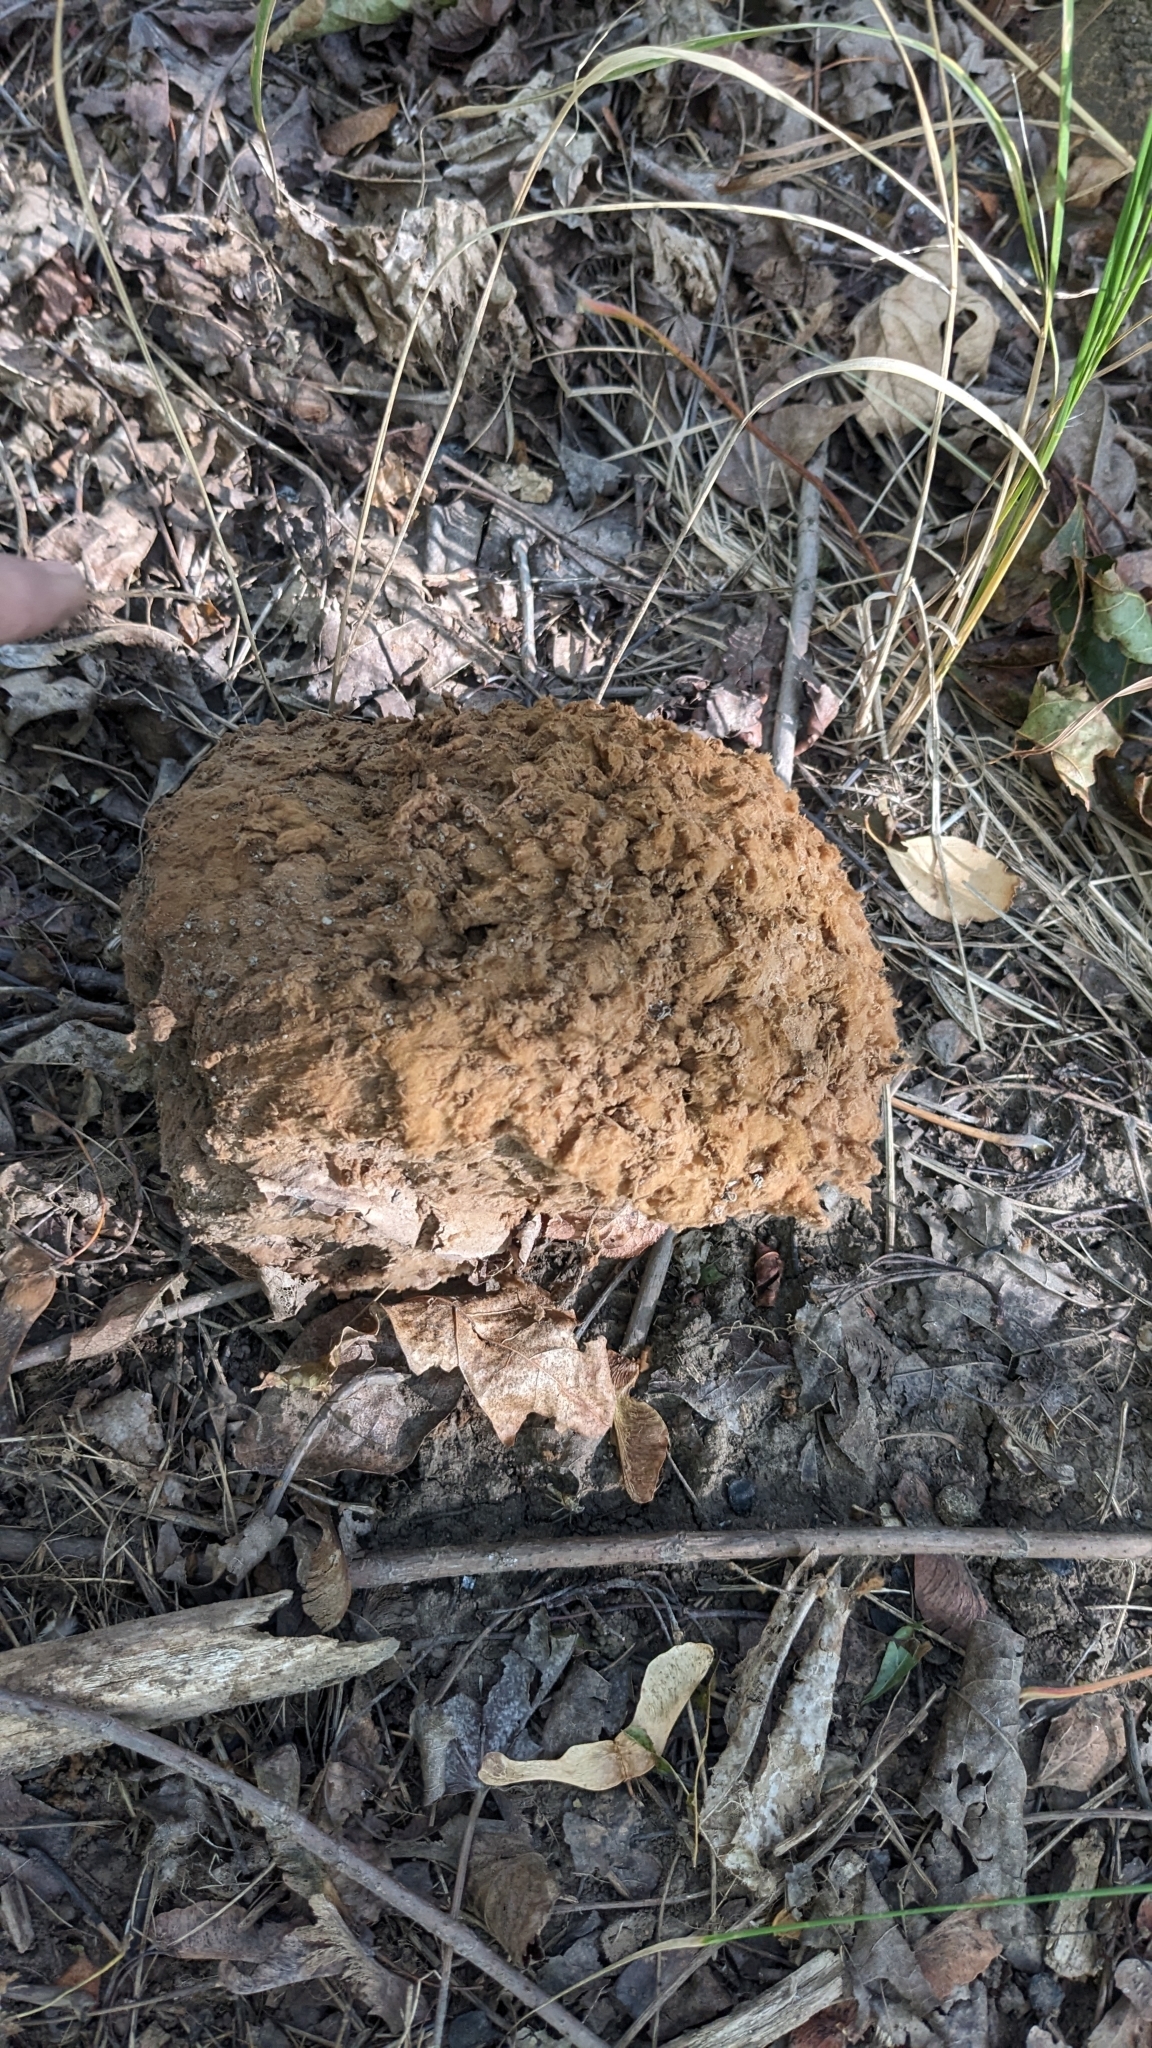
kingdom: Fungi
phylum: Basidiomycota
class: Agaricomycetes
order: Agaricales
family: Lycoperdaceae
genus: Calvatia
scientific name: Calvatia gigantea
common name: Giant puffball
